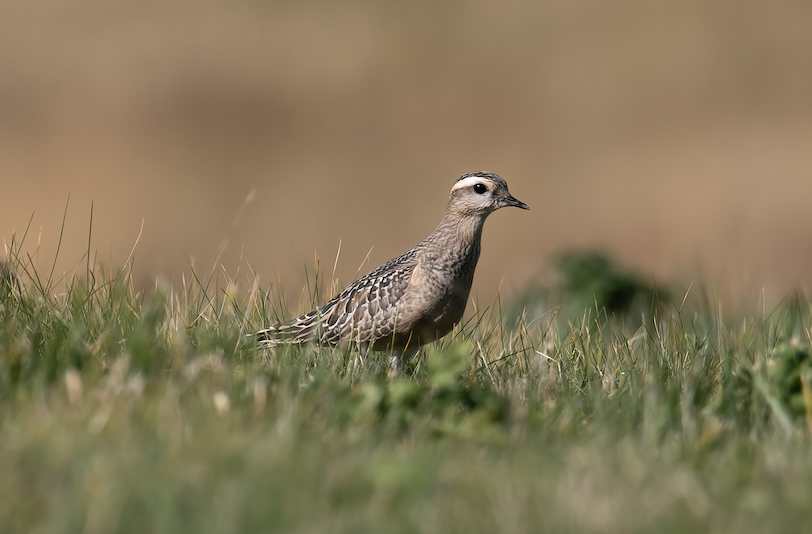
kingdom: Animalia
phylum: Chordata
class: Aves
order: Charadriiformes
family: Charadriidae
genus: Charadrius
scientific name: Charadrius morinellus
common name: Eurasian dotterel
